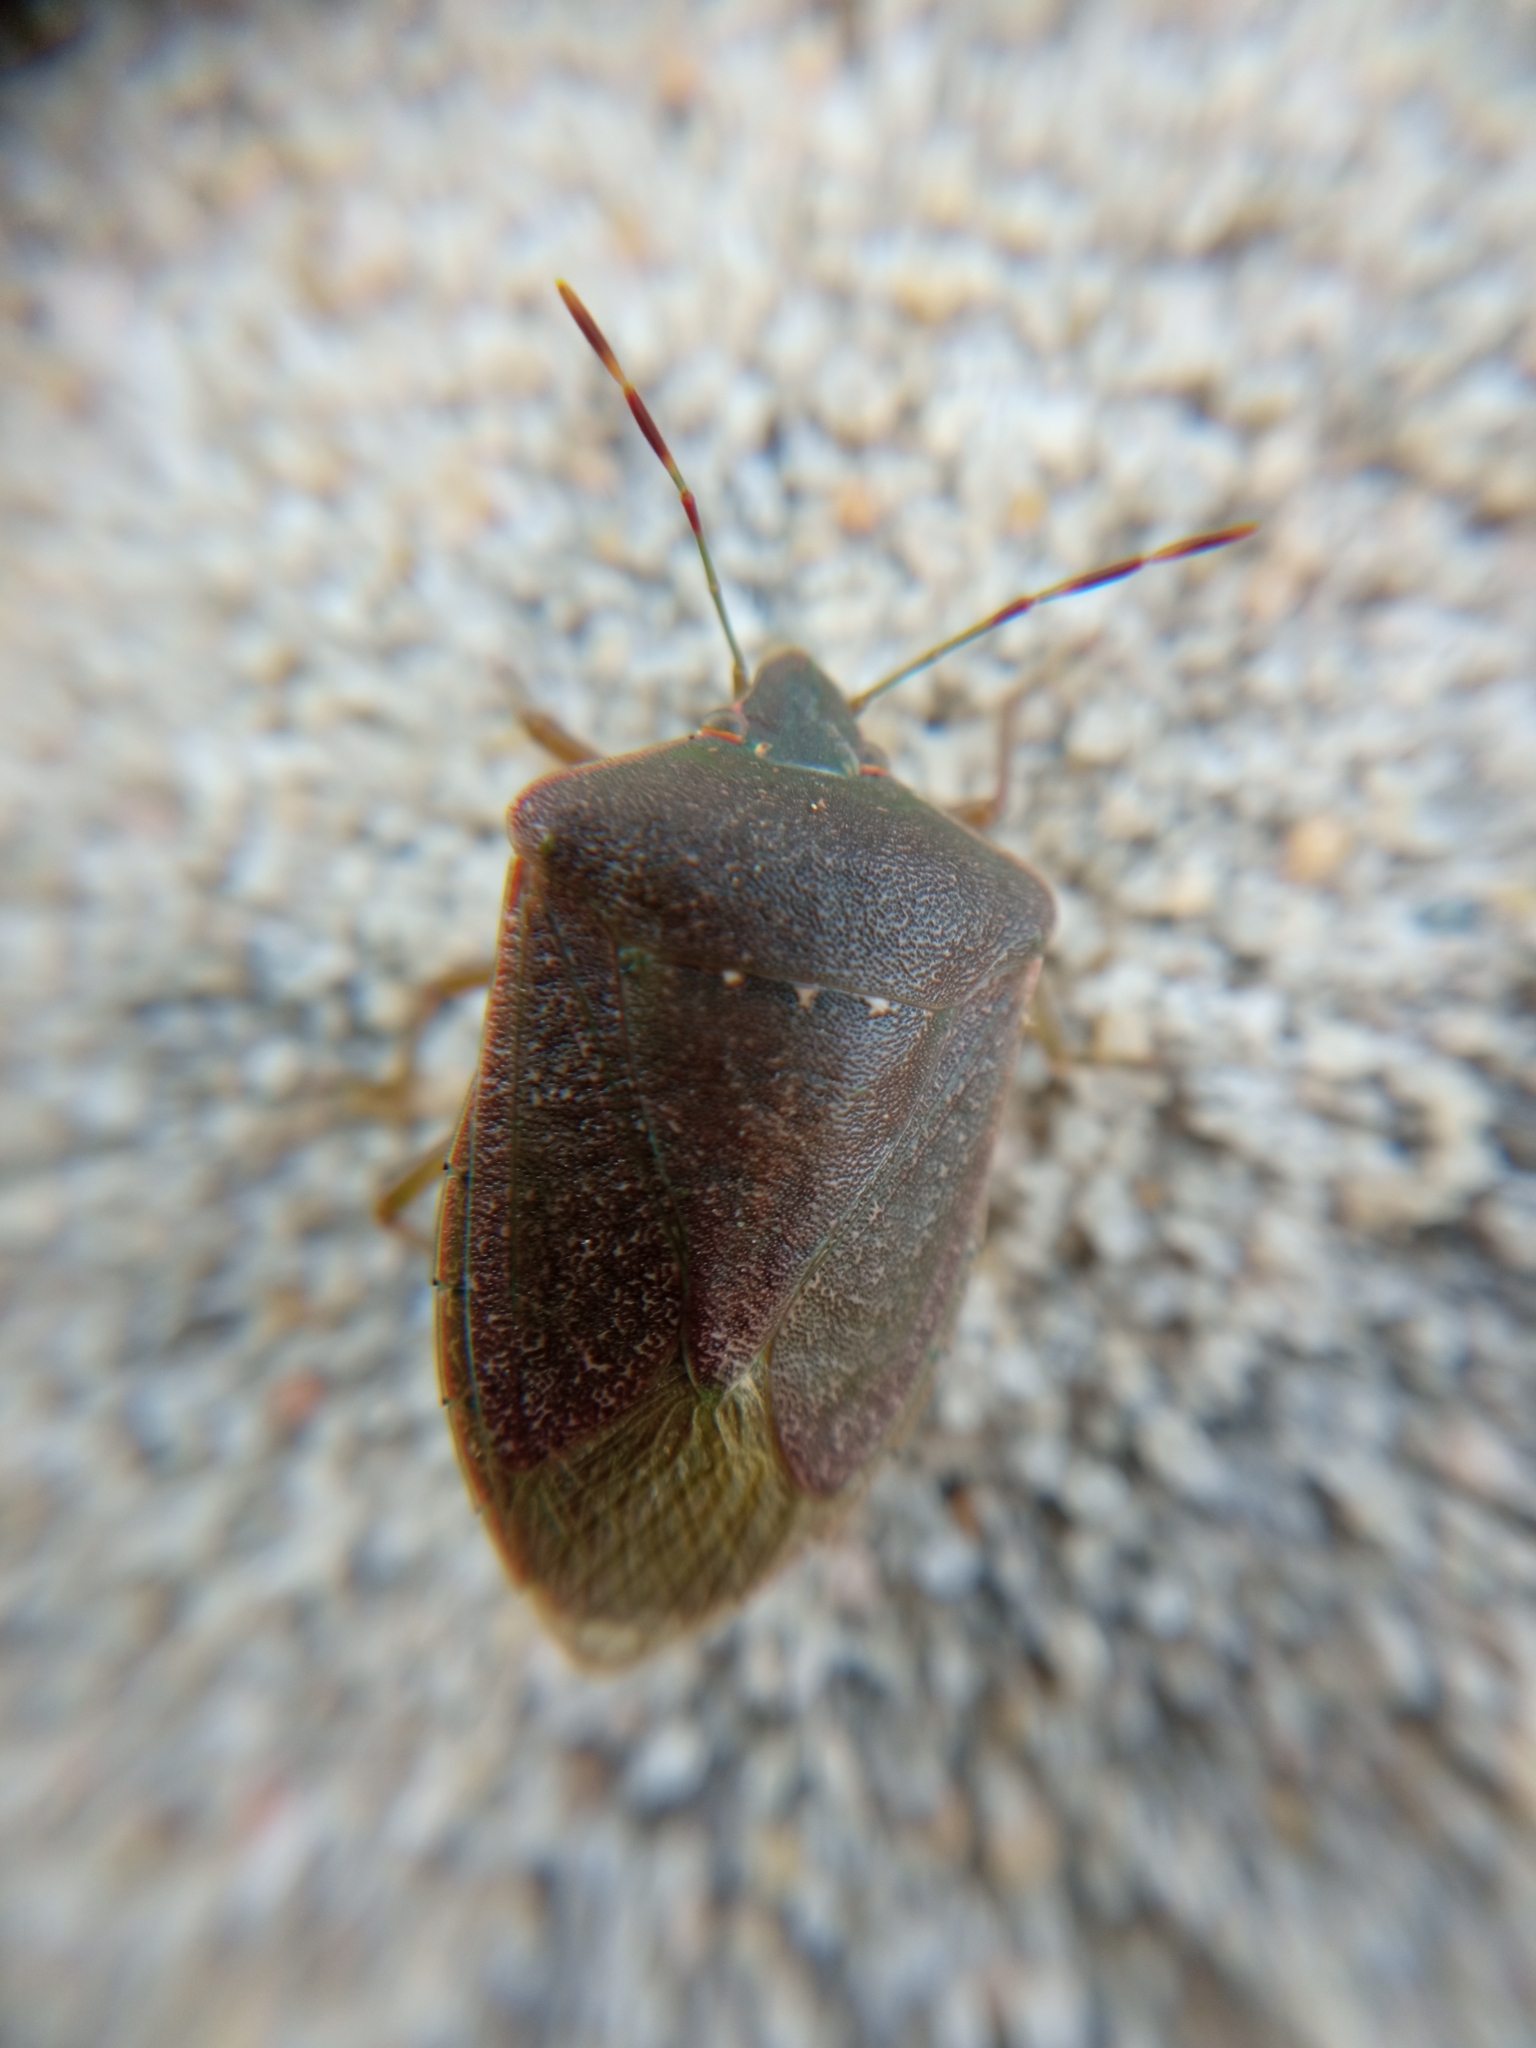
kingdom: Animalia
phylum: Arthropoda
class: Insecta
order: Hemiptera
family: Pentatomidae
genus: Nezara
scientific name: Nezara viridula
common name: Southern green stink bug
